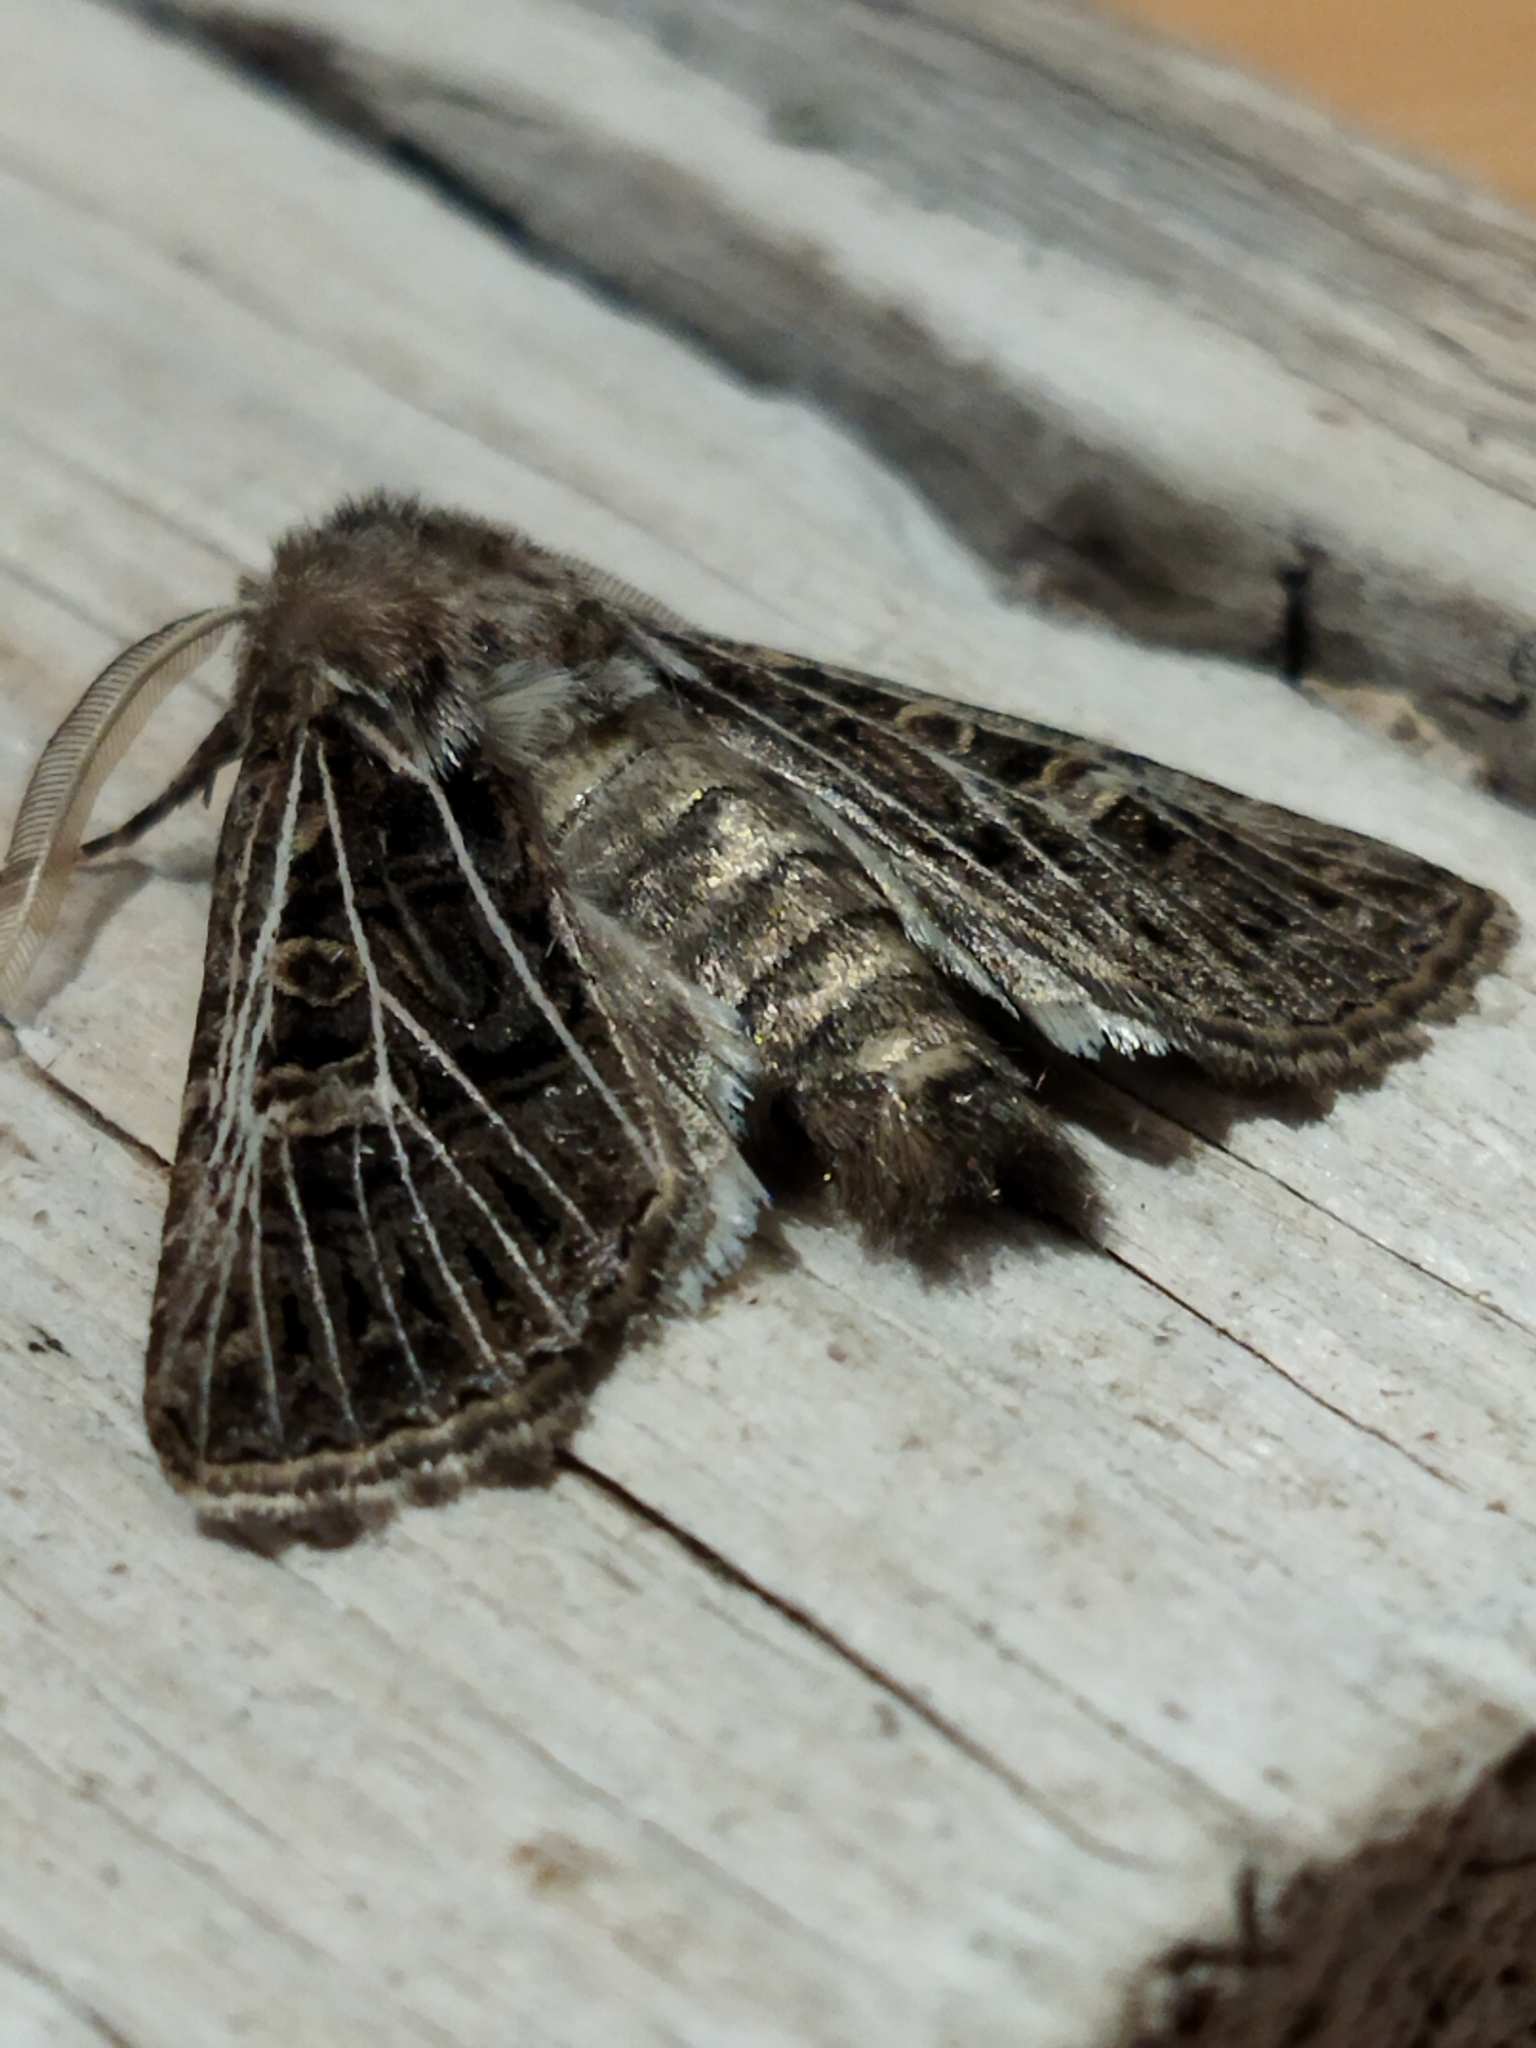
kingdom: Animalia
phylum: Arthropoda
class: Insecta
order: Lepidoptera
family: Noctuidae
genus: Tholera
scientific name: Tholera decimalis
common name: Feathered gothic
